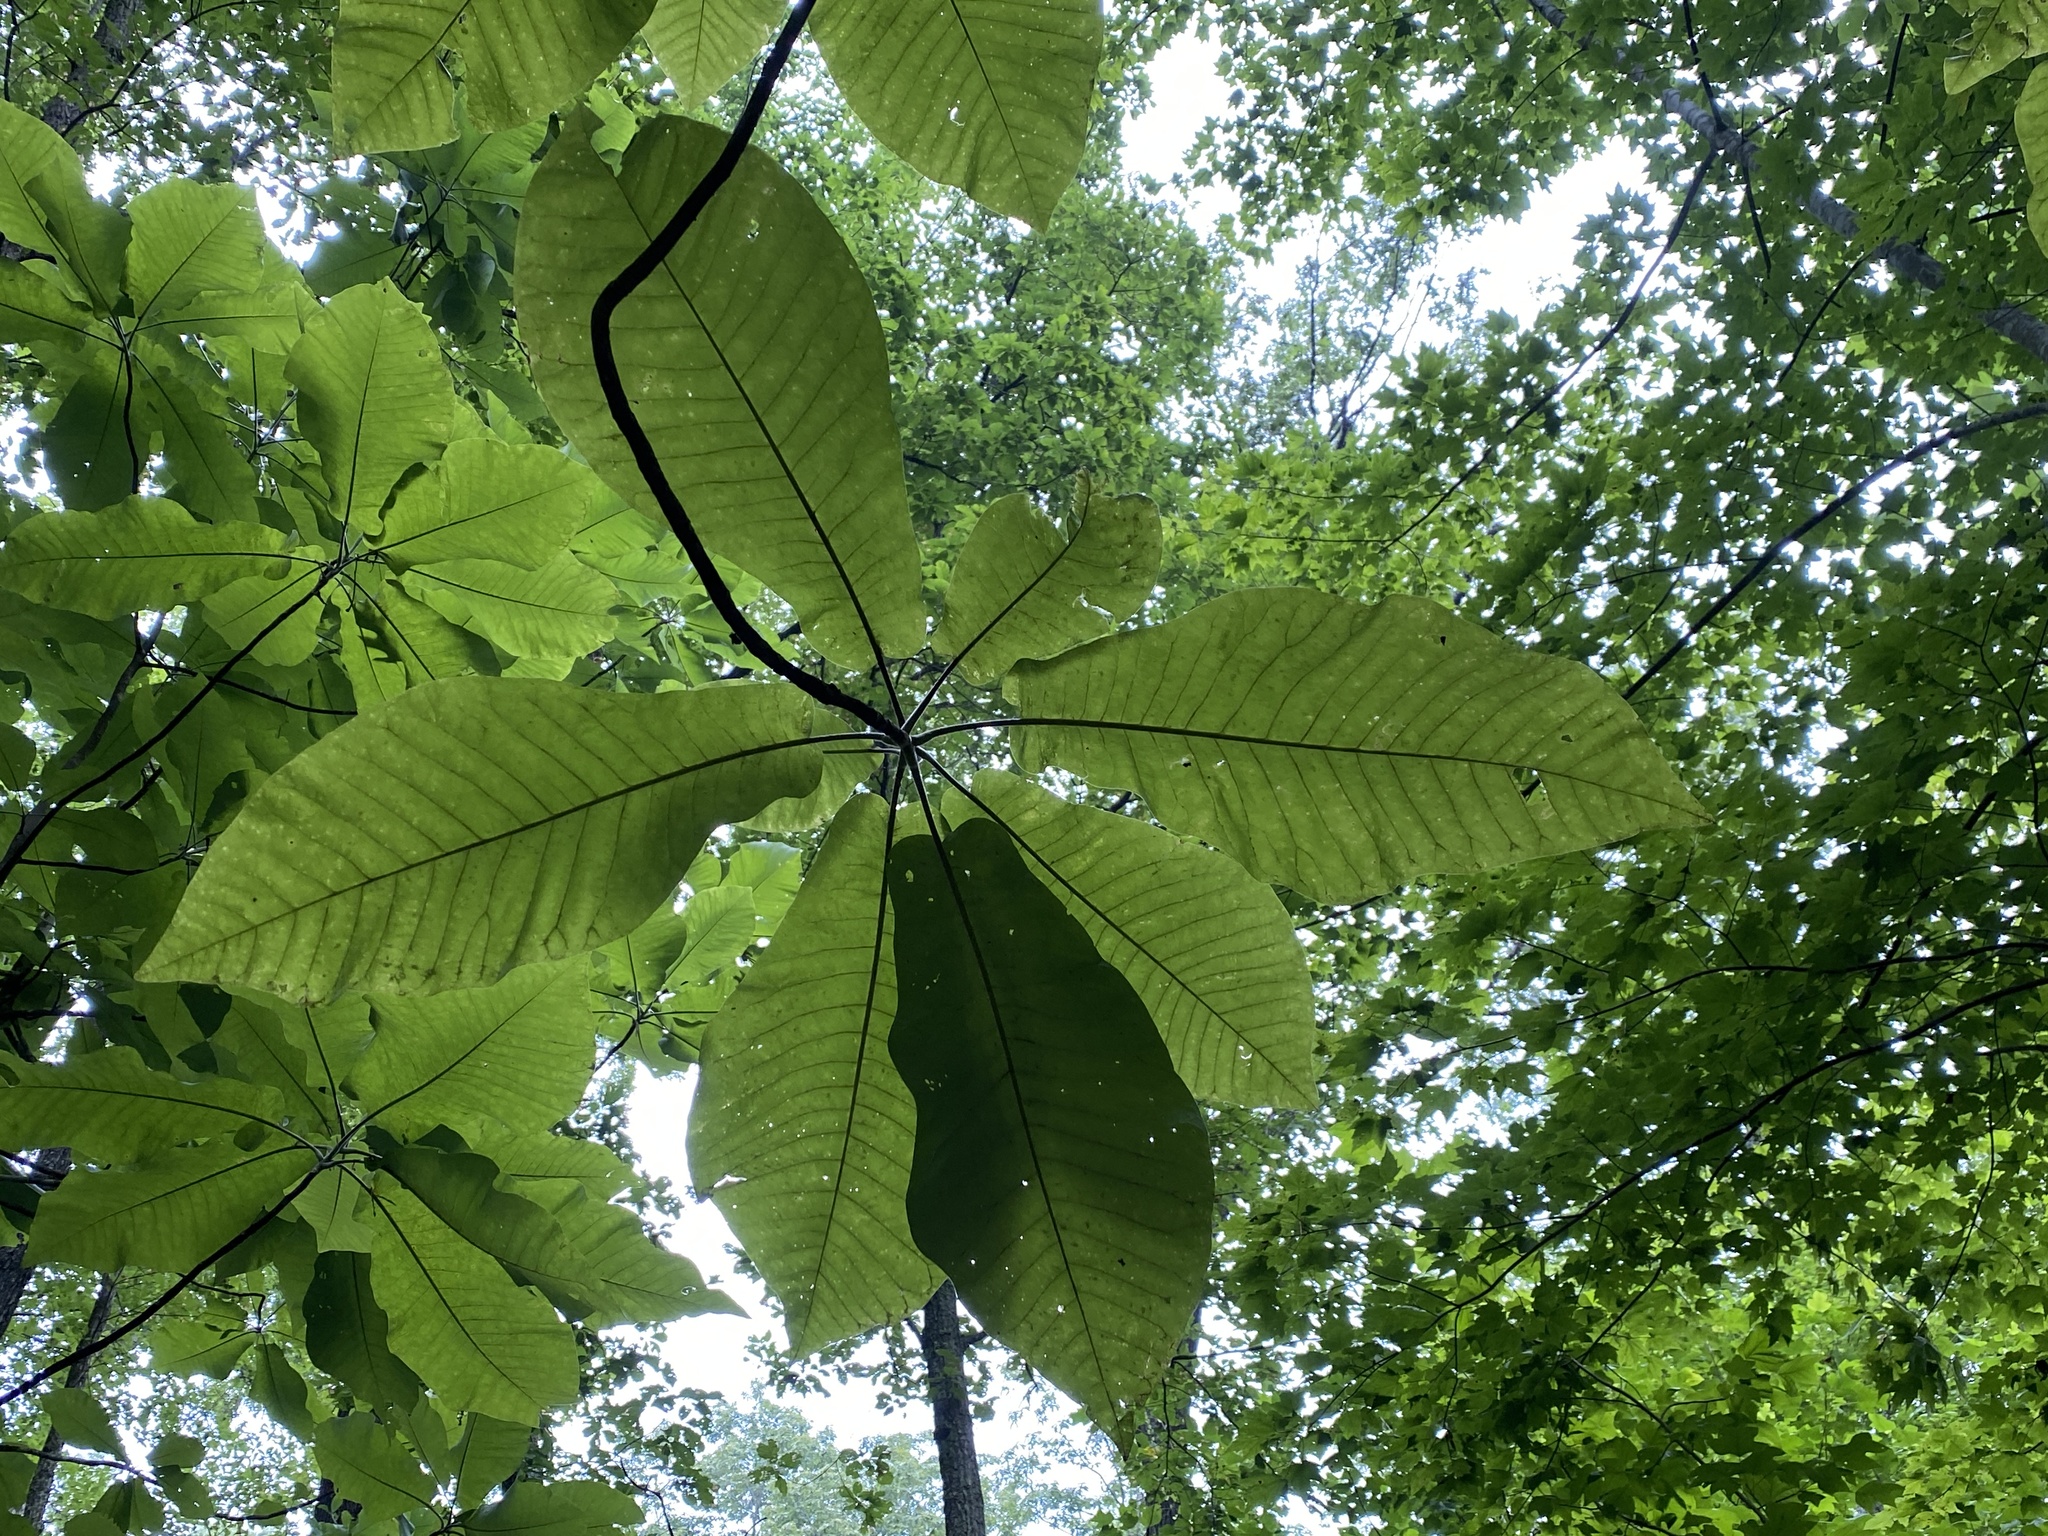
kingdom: Plantae
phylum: Tracheophyta
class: Magnoliopsida
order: Magnoliales
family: Magnoliaceae
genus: Magnolia
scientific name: Magnolia macrophylla
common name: Big-leaf magnolia
